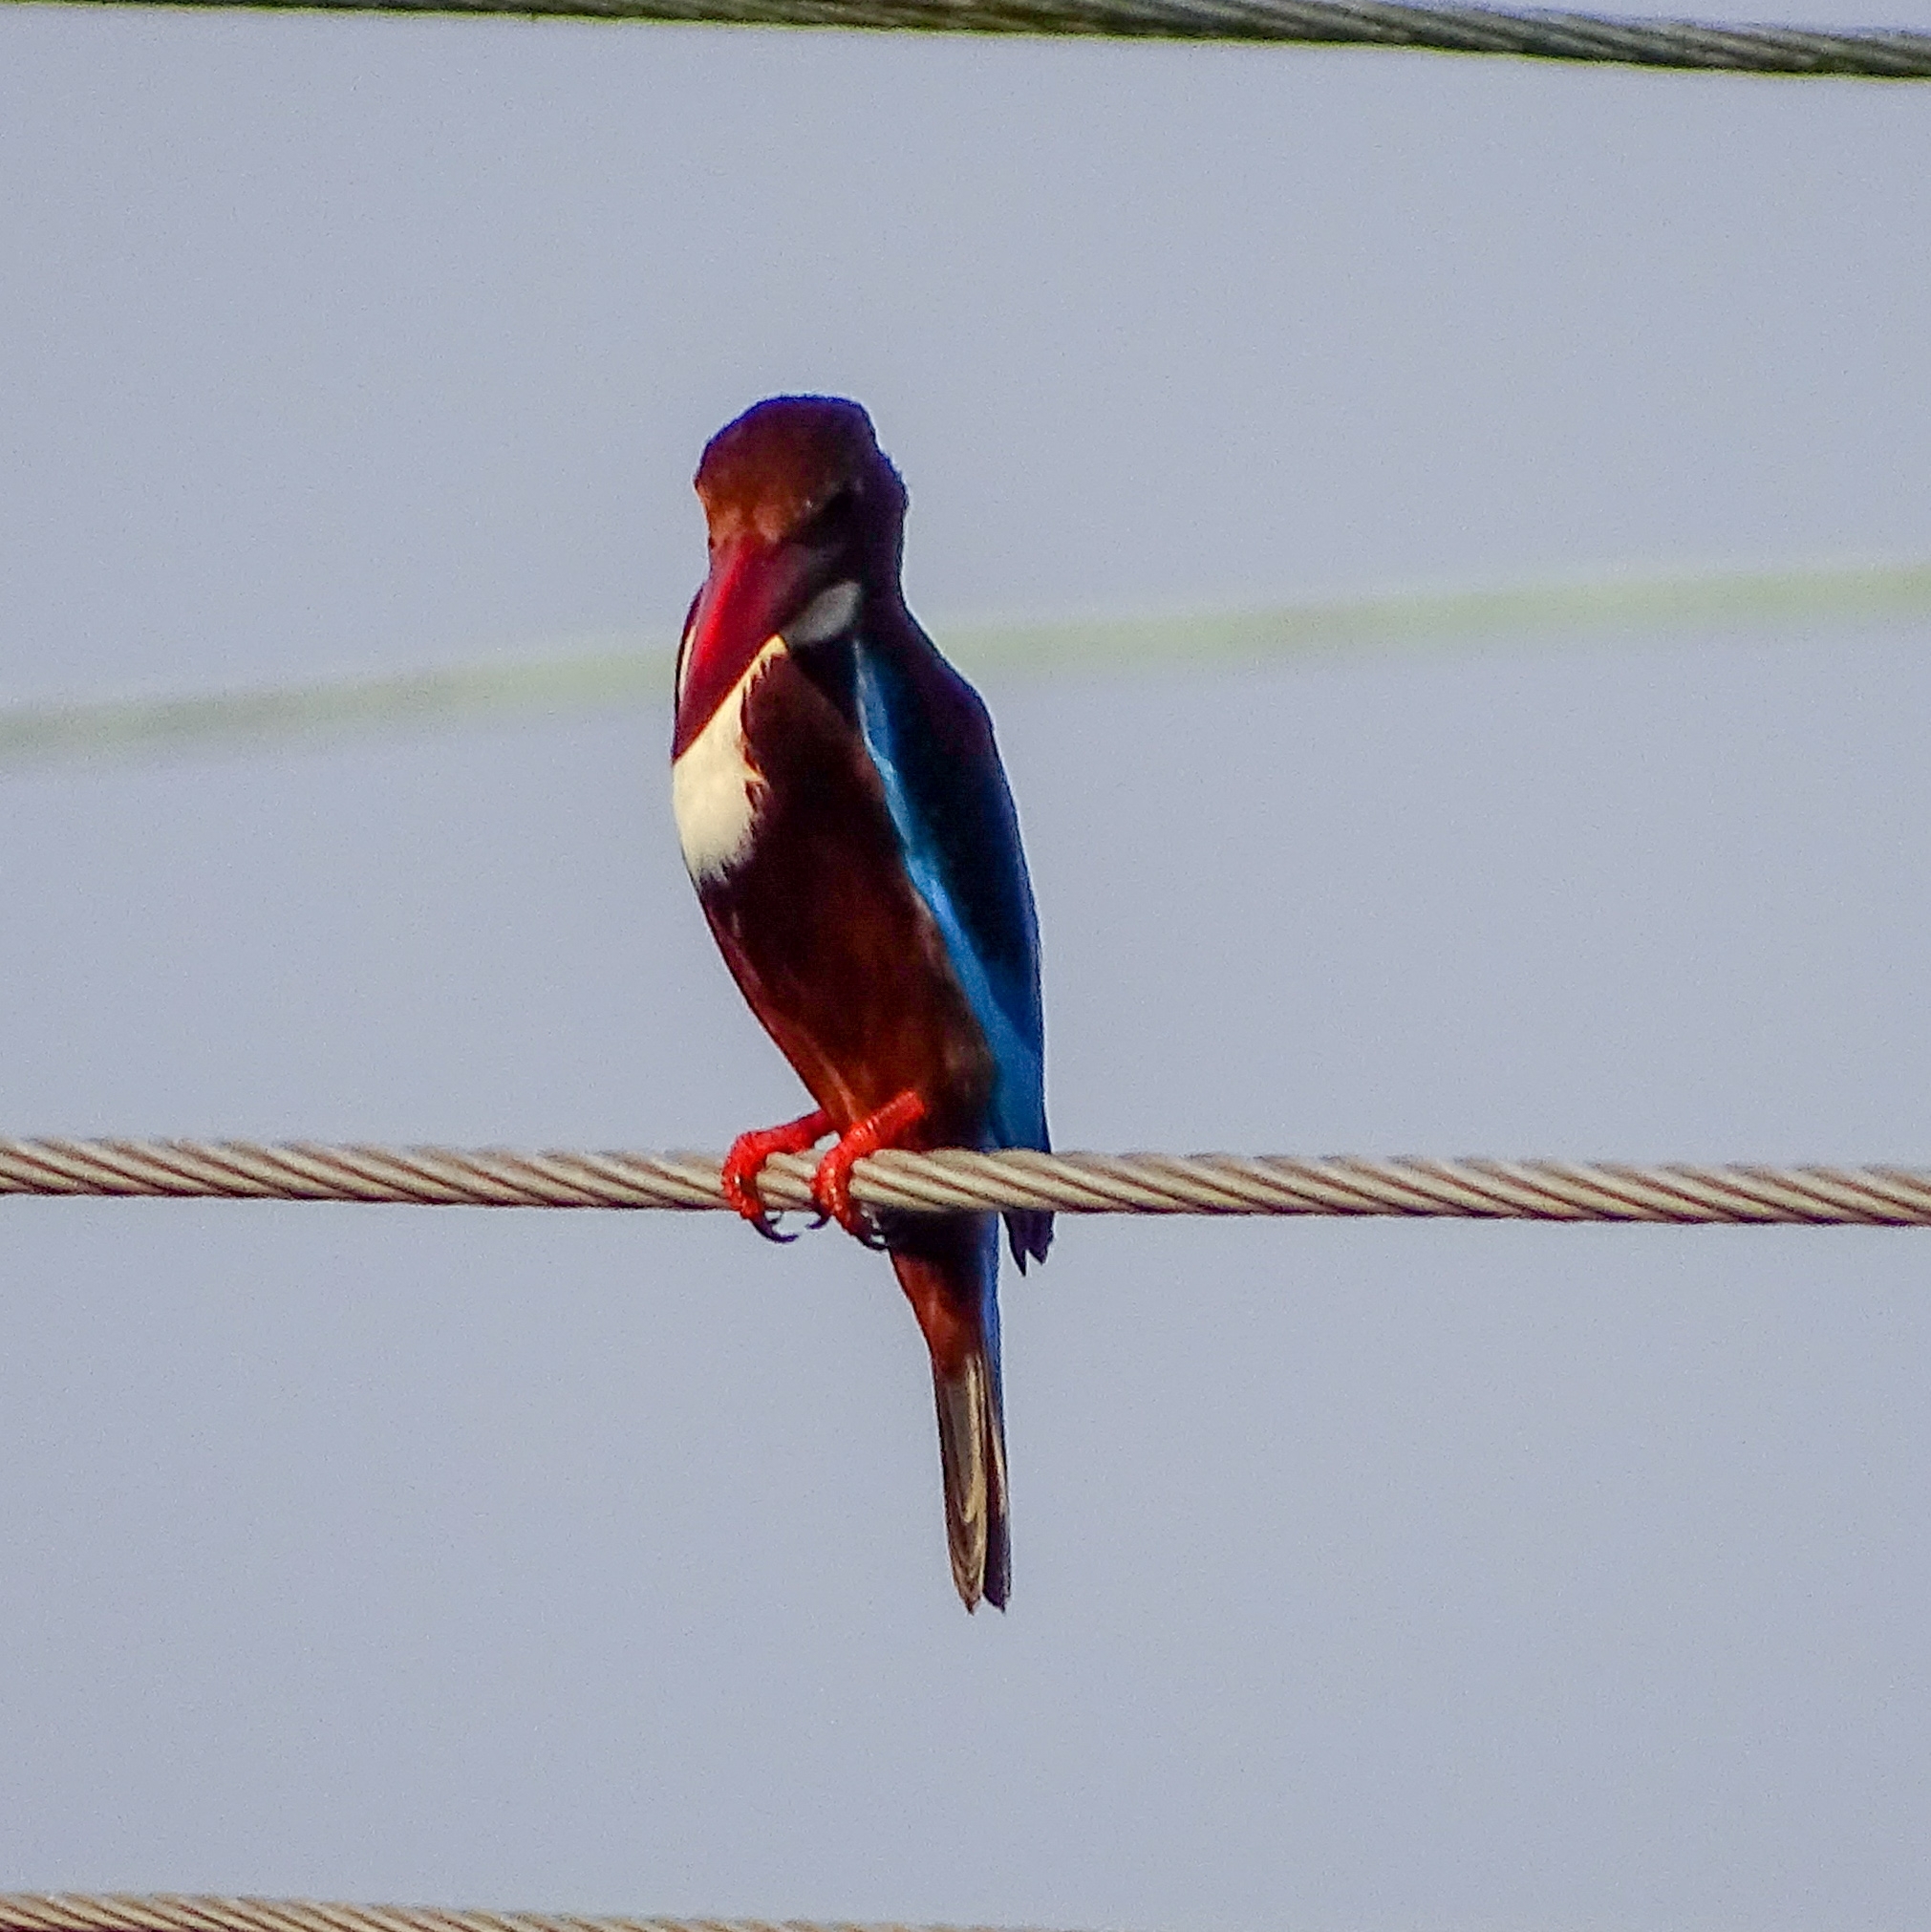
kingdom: Animalia
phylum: Chordata
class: Aves
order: Coraciiformes
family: Alcedinidae
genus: Halcyon
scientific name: Halcyon smyrnensis
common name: White-throated kingfisher
